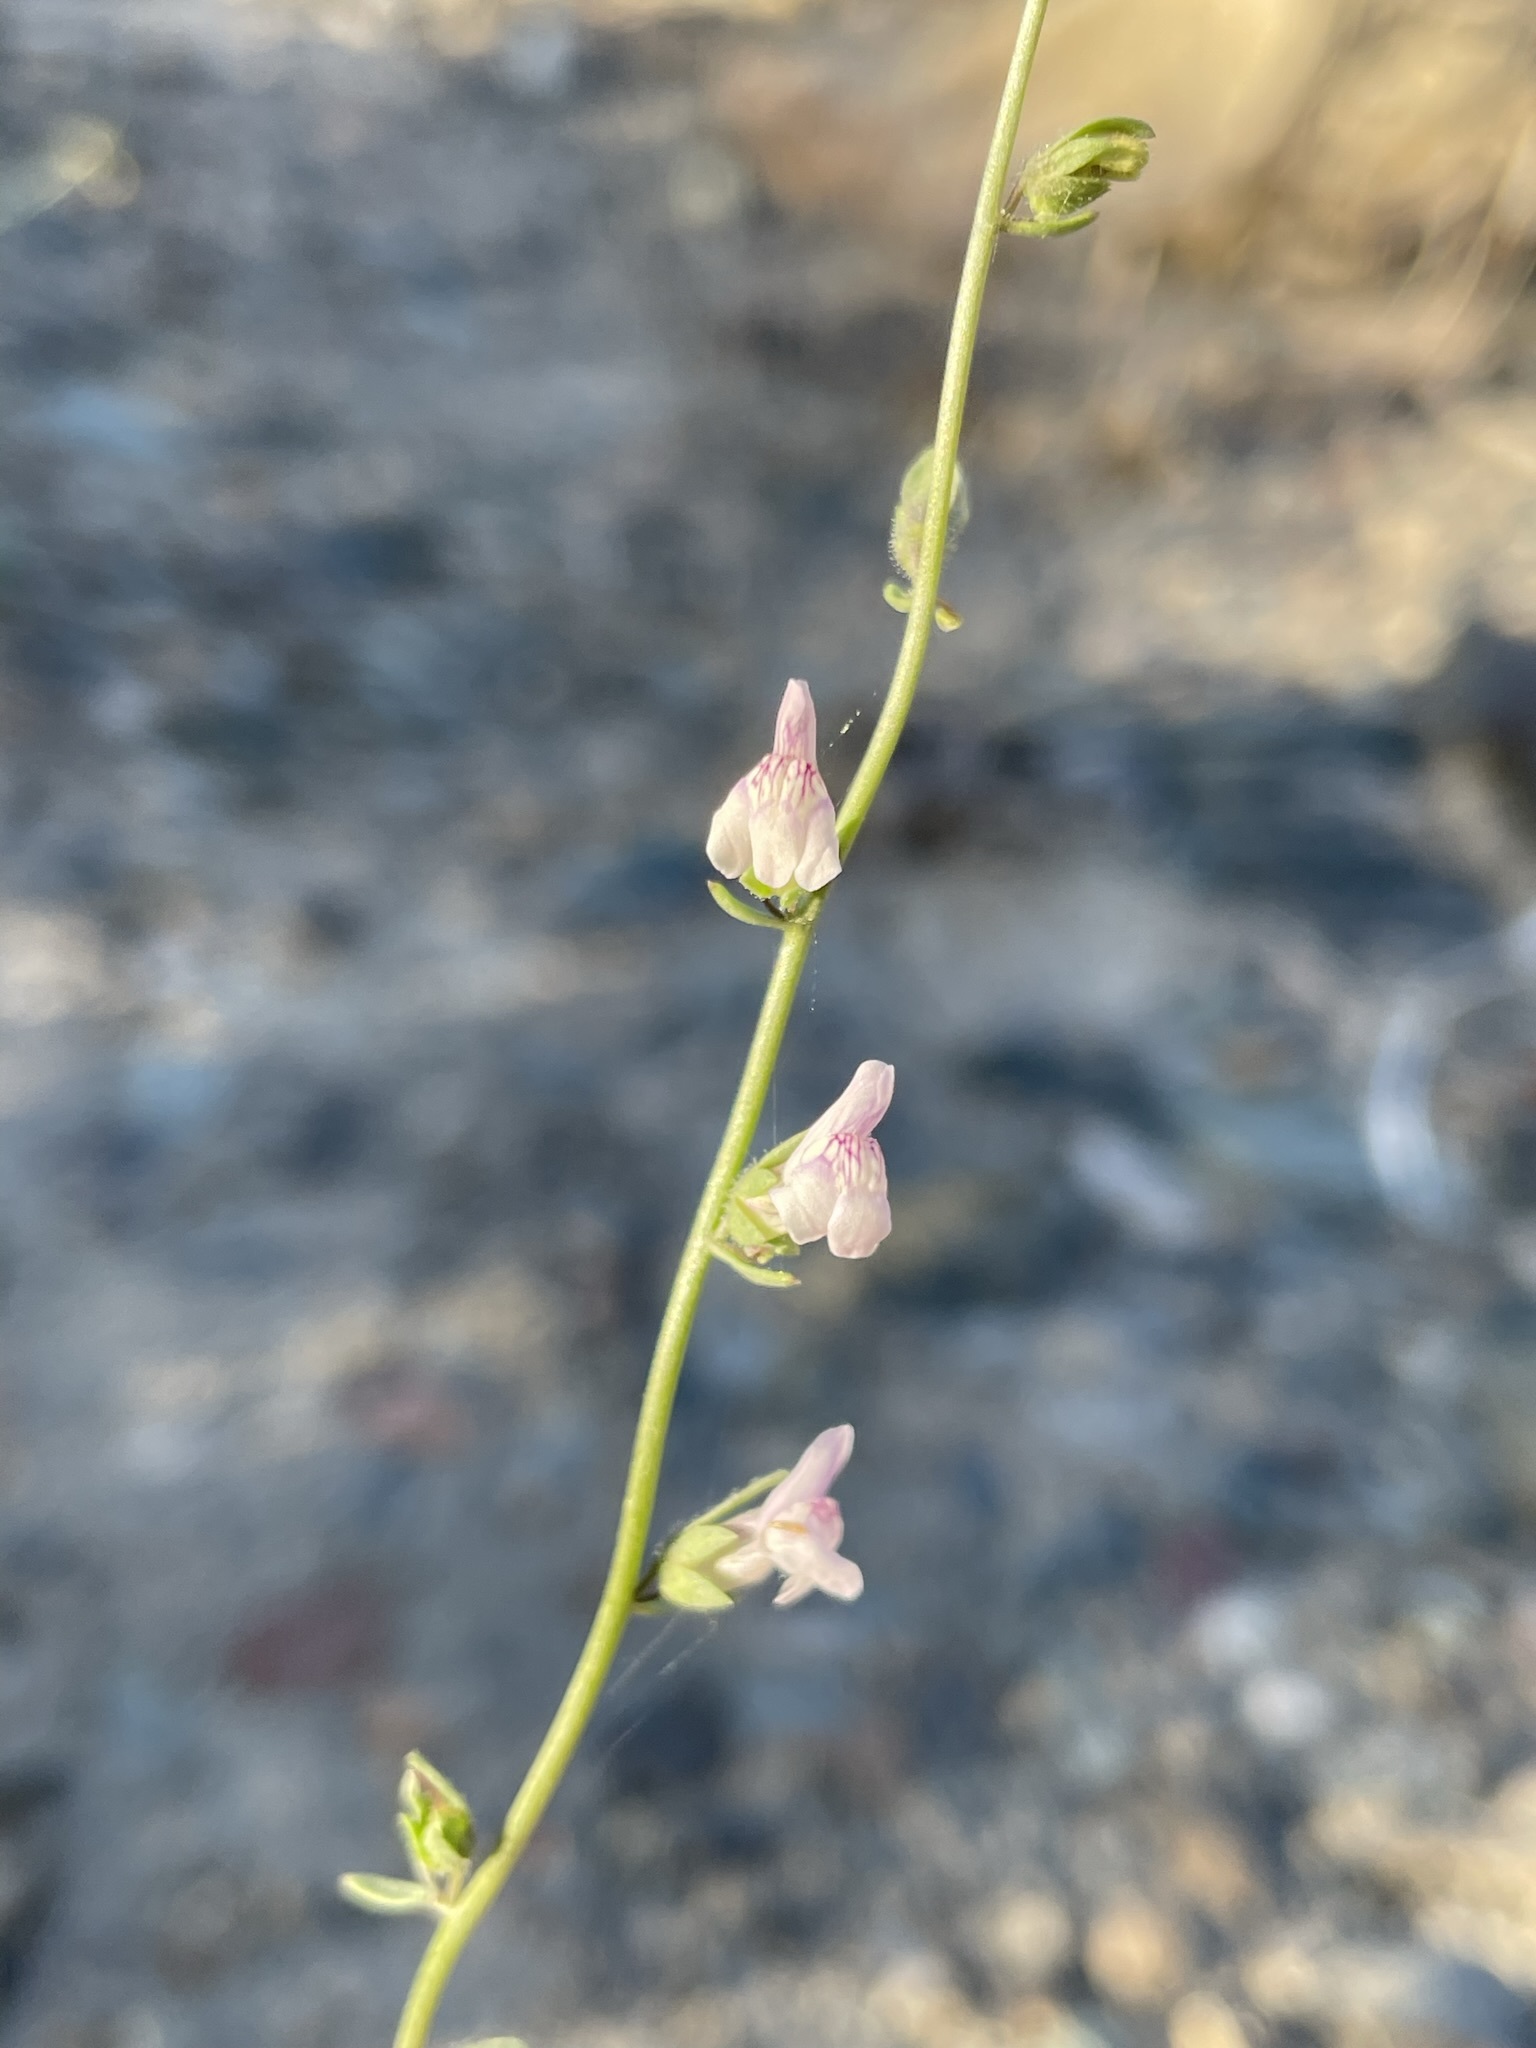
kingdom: Plantae
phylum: Tracheophyta
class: Magnoliopsida
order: Lamiales
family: Plantaginaceae
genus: Sairocarpus
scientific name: Sairocarpus kingii
